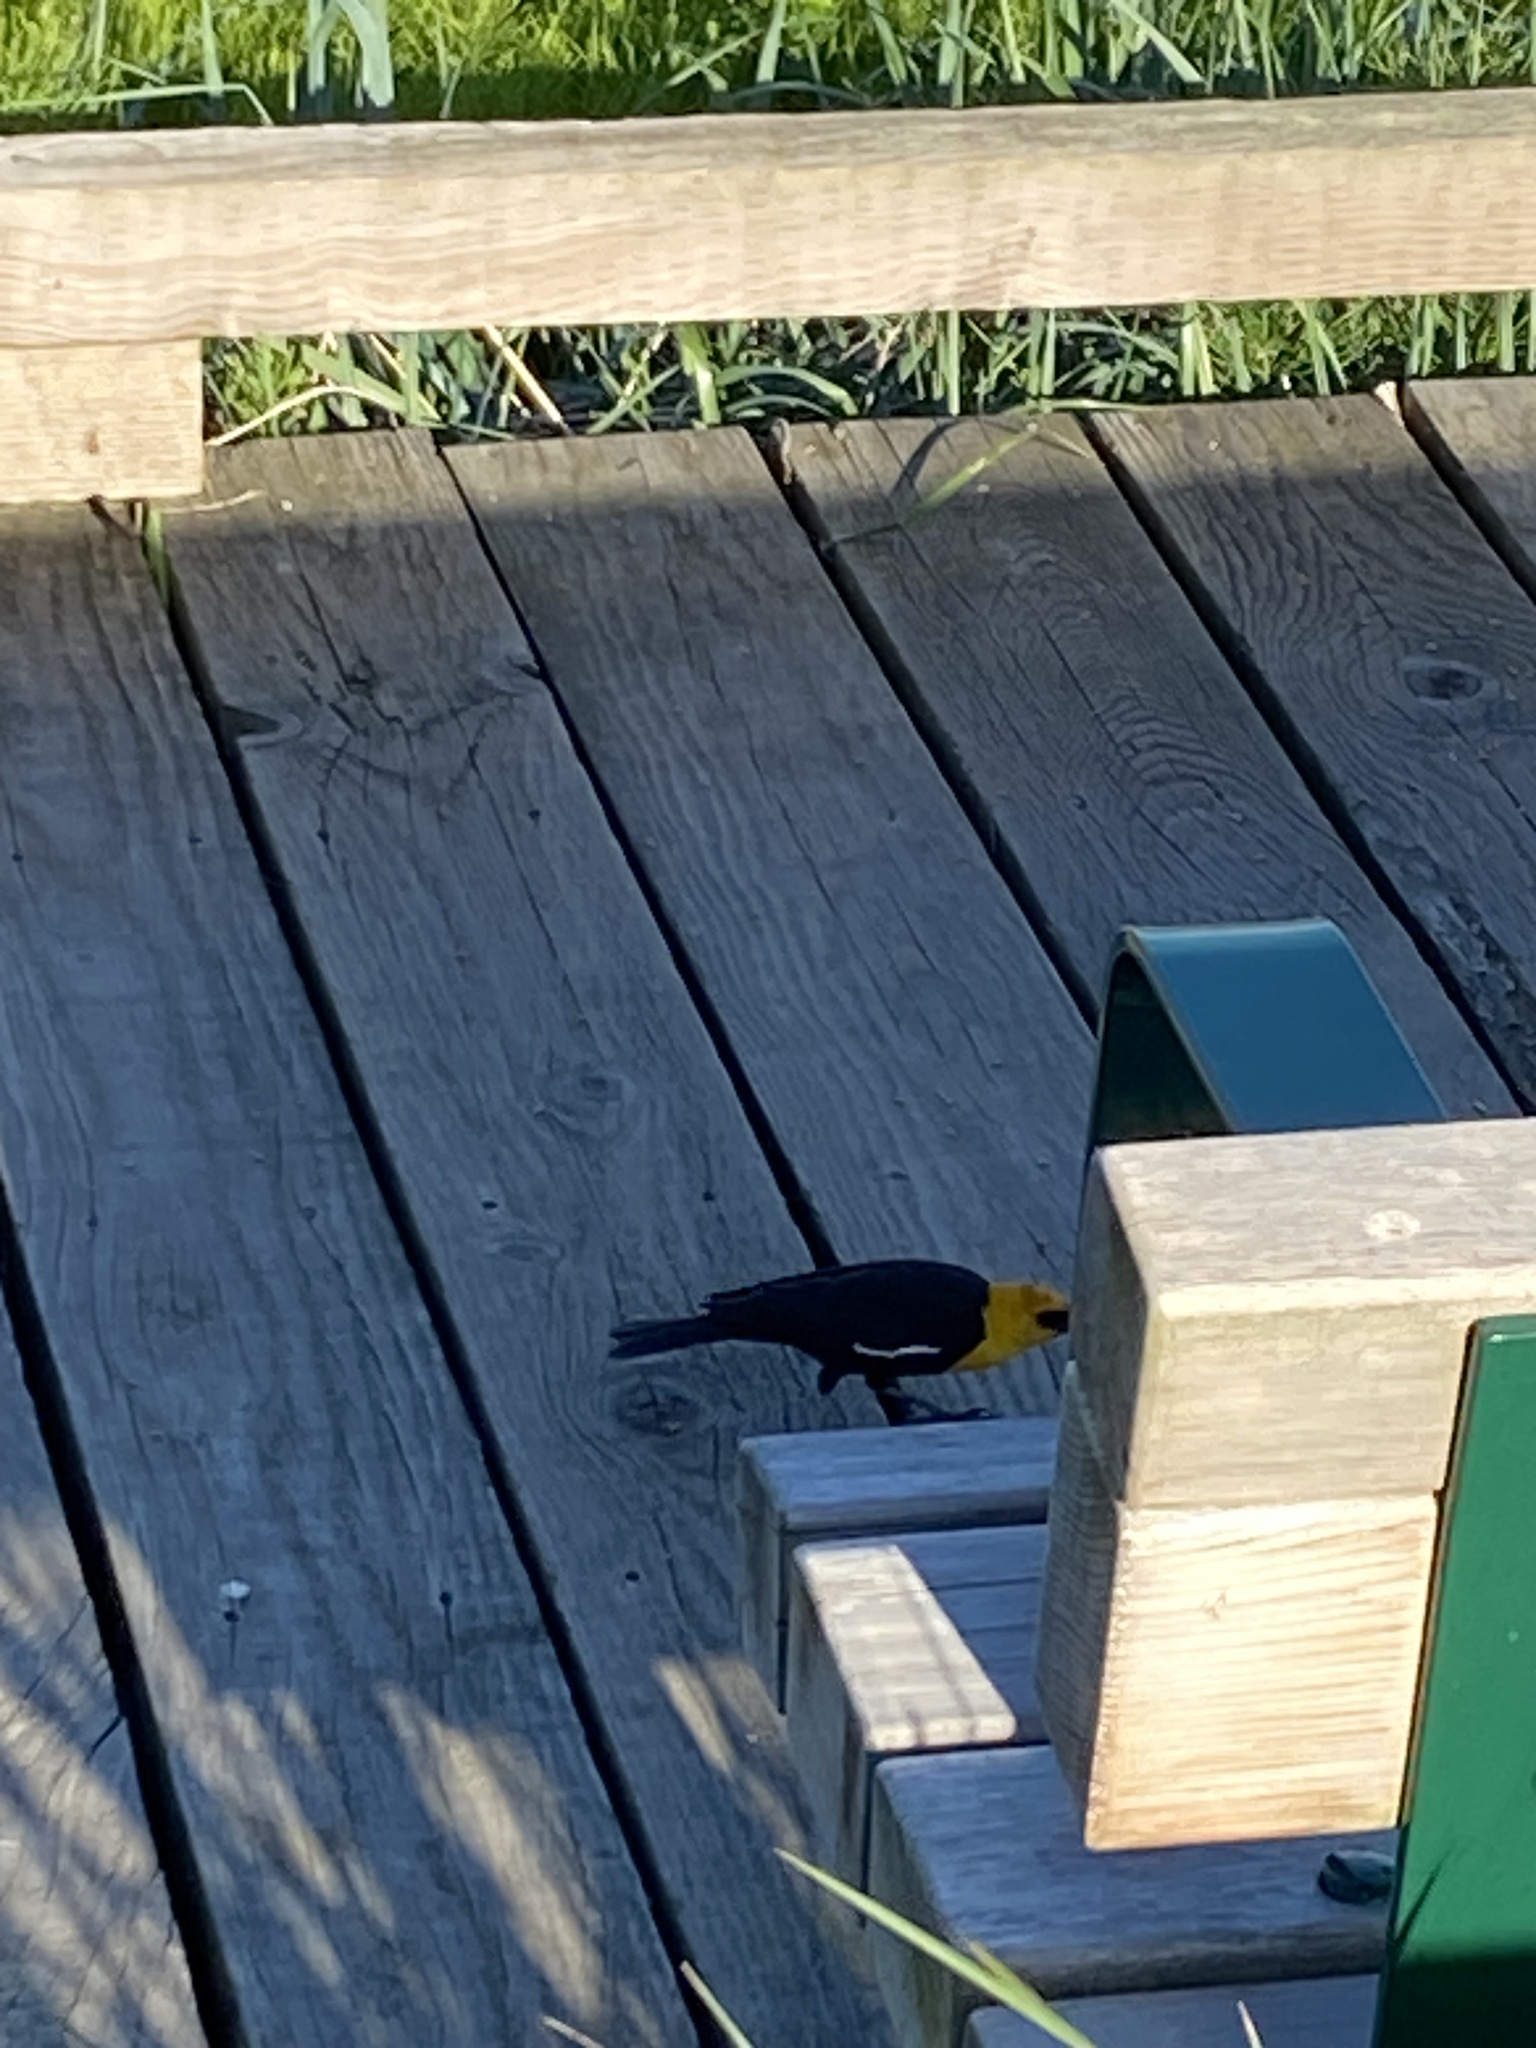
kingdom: Animalia
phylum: Chordata
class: Aves
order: Passeriformes
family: Icteridae
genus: Xanthocephalus
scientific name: Xanthocephalus xanthocephalus
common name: Yellow-headed blackbird
